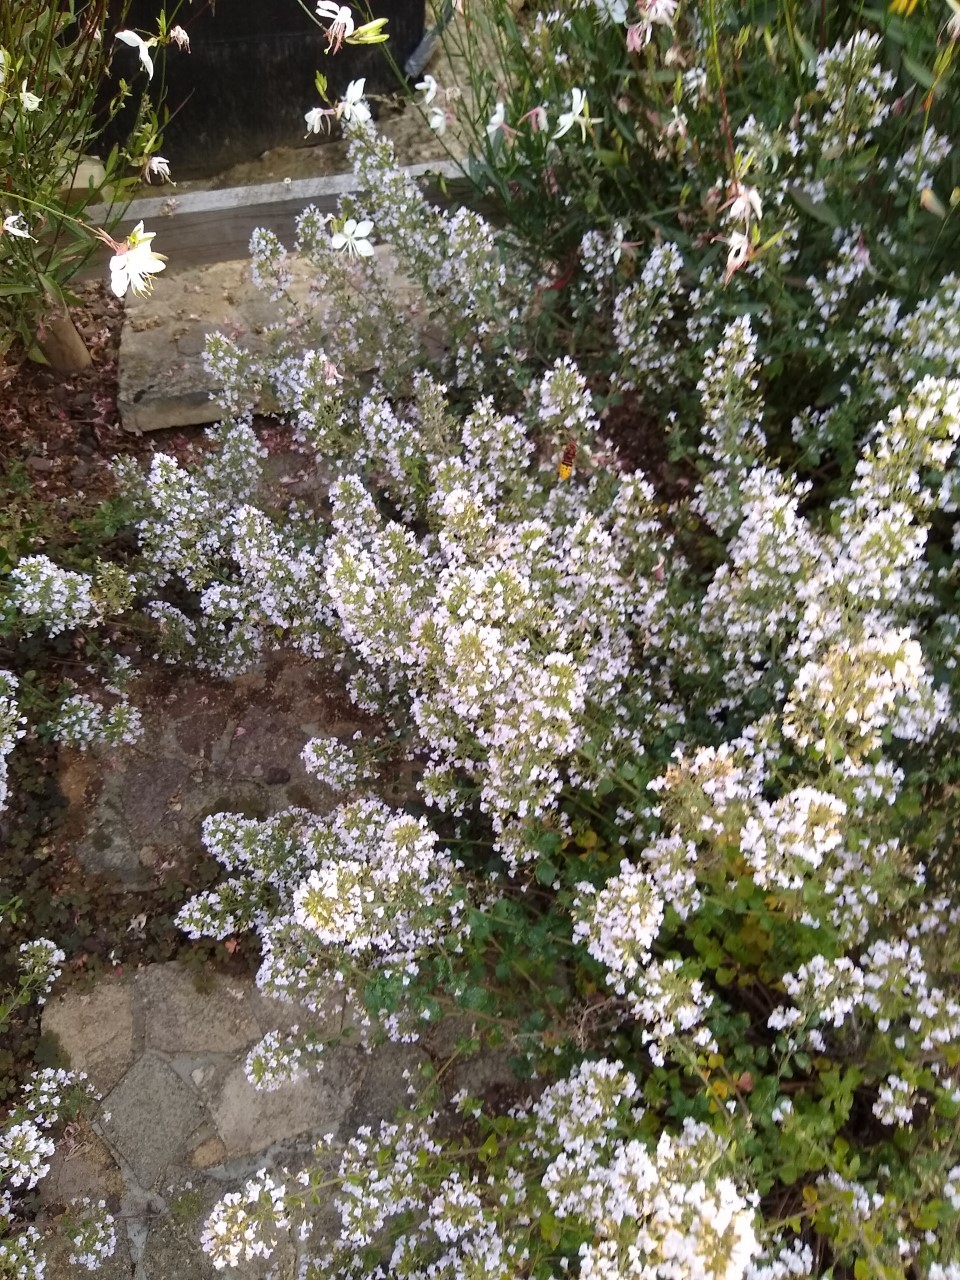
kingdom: Animalia
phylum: Arthropoda
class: Insecta
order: Hymenoptera
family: Vespidae
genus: Vespa
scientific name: Vespa crabro
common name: Hornet
